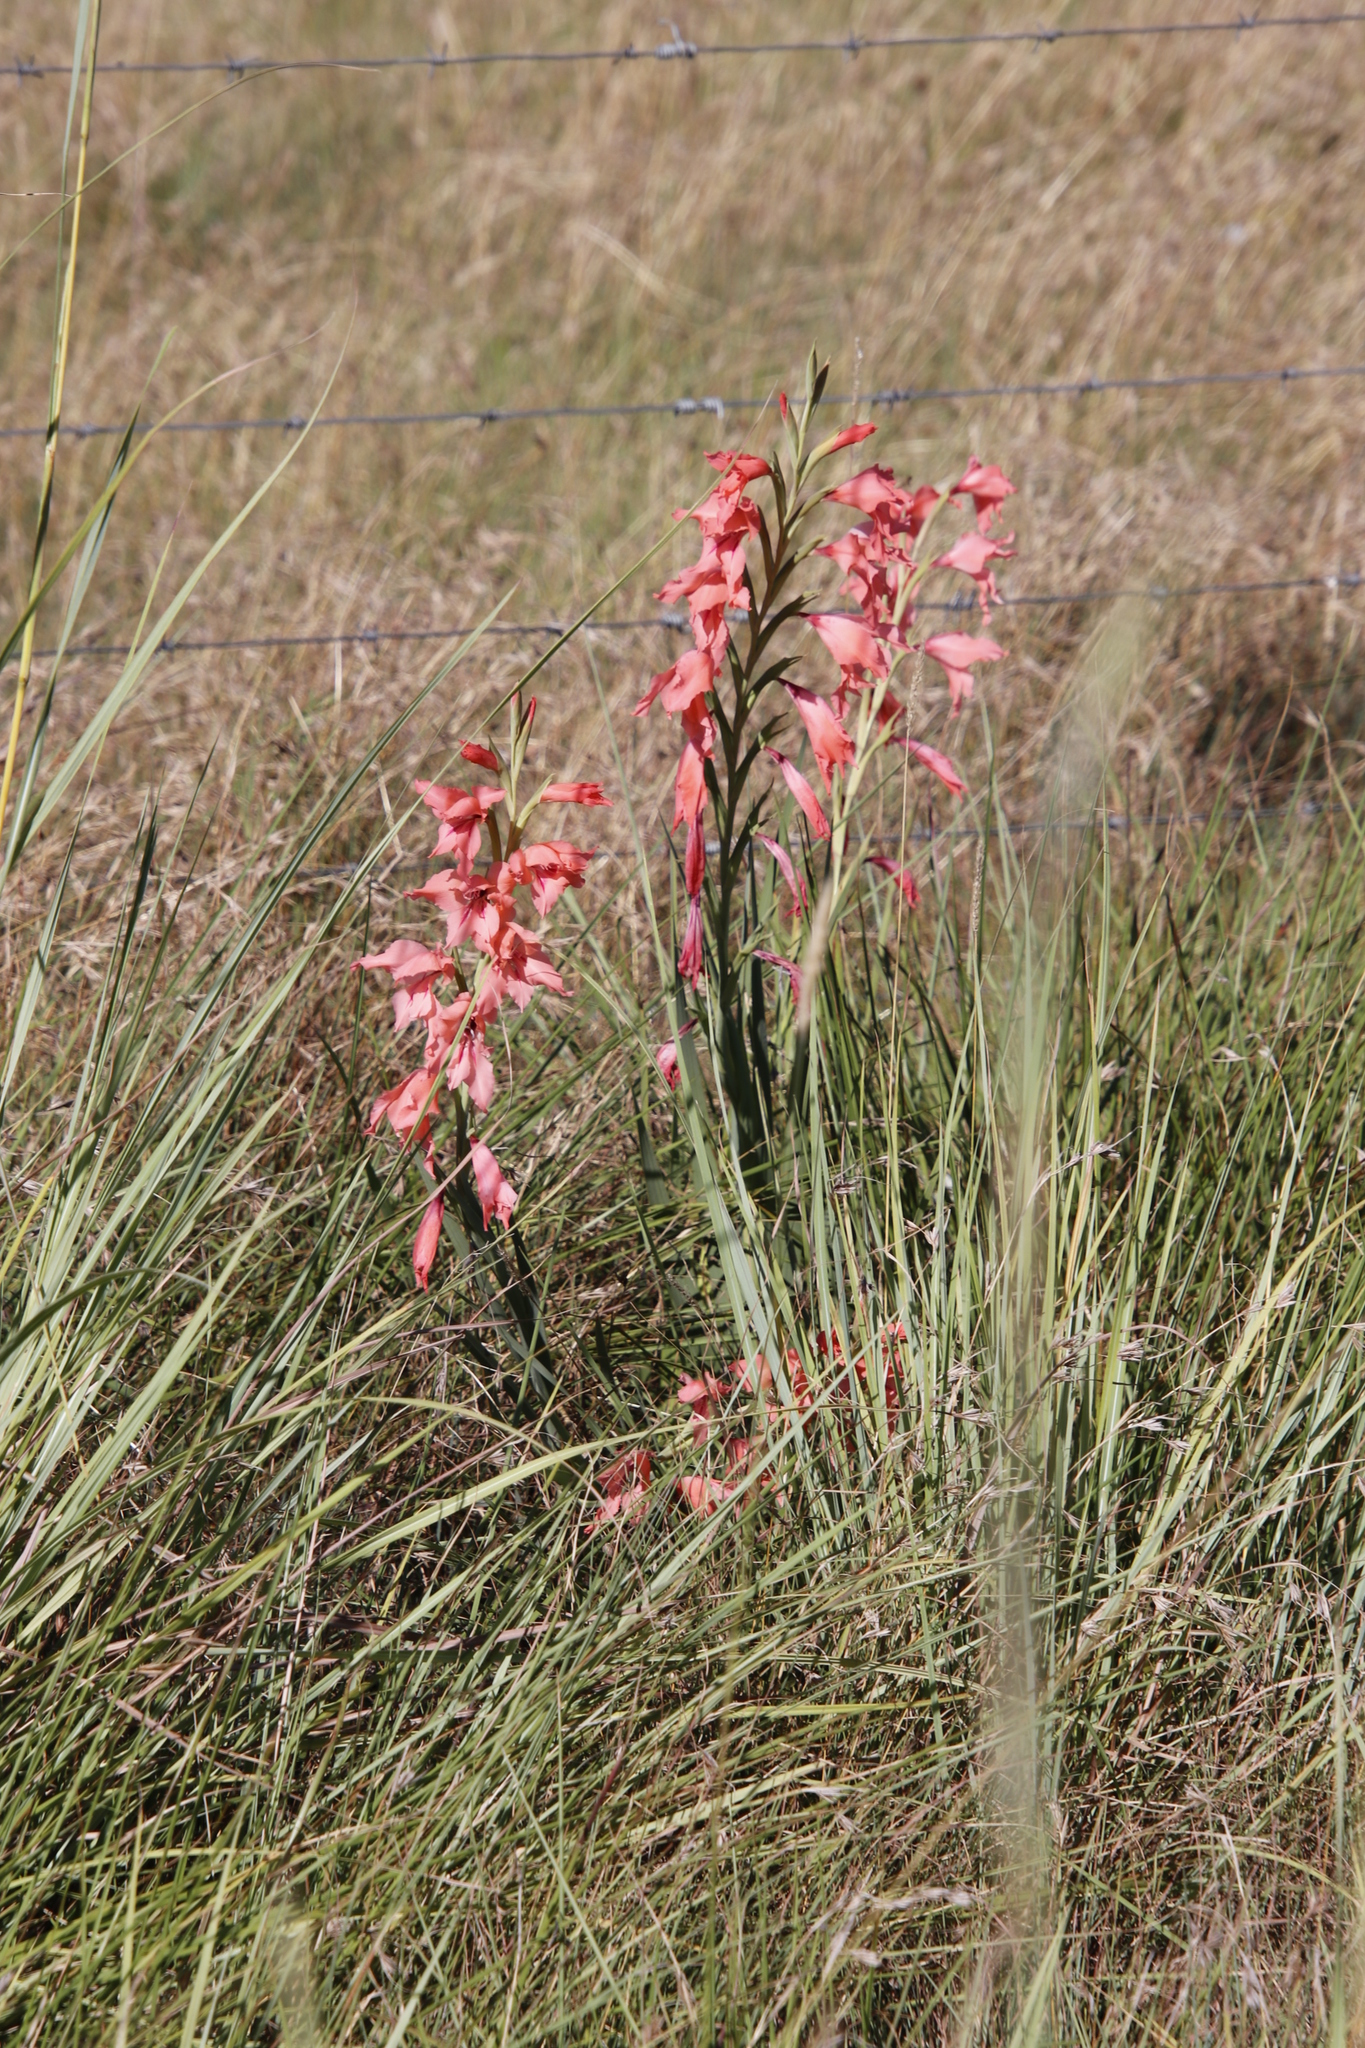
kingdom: Plantae
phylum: Tracheophyta
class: Liliopsida
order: Asparagales
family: Iridaceae
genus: Gladiolus
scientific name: Gladiolus oppositiflorus
